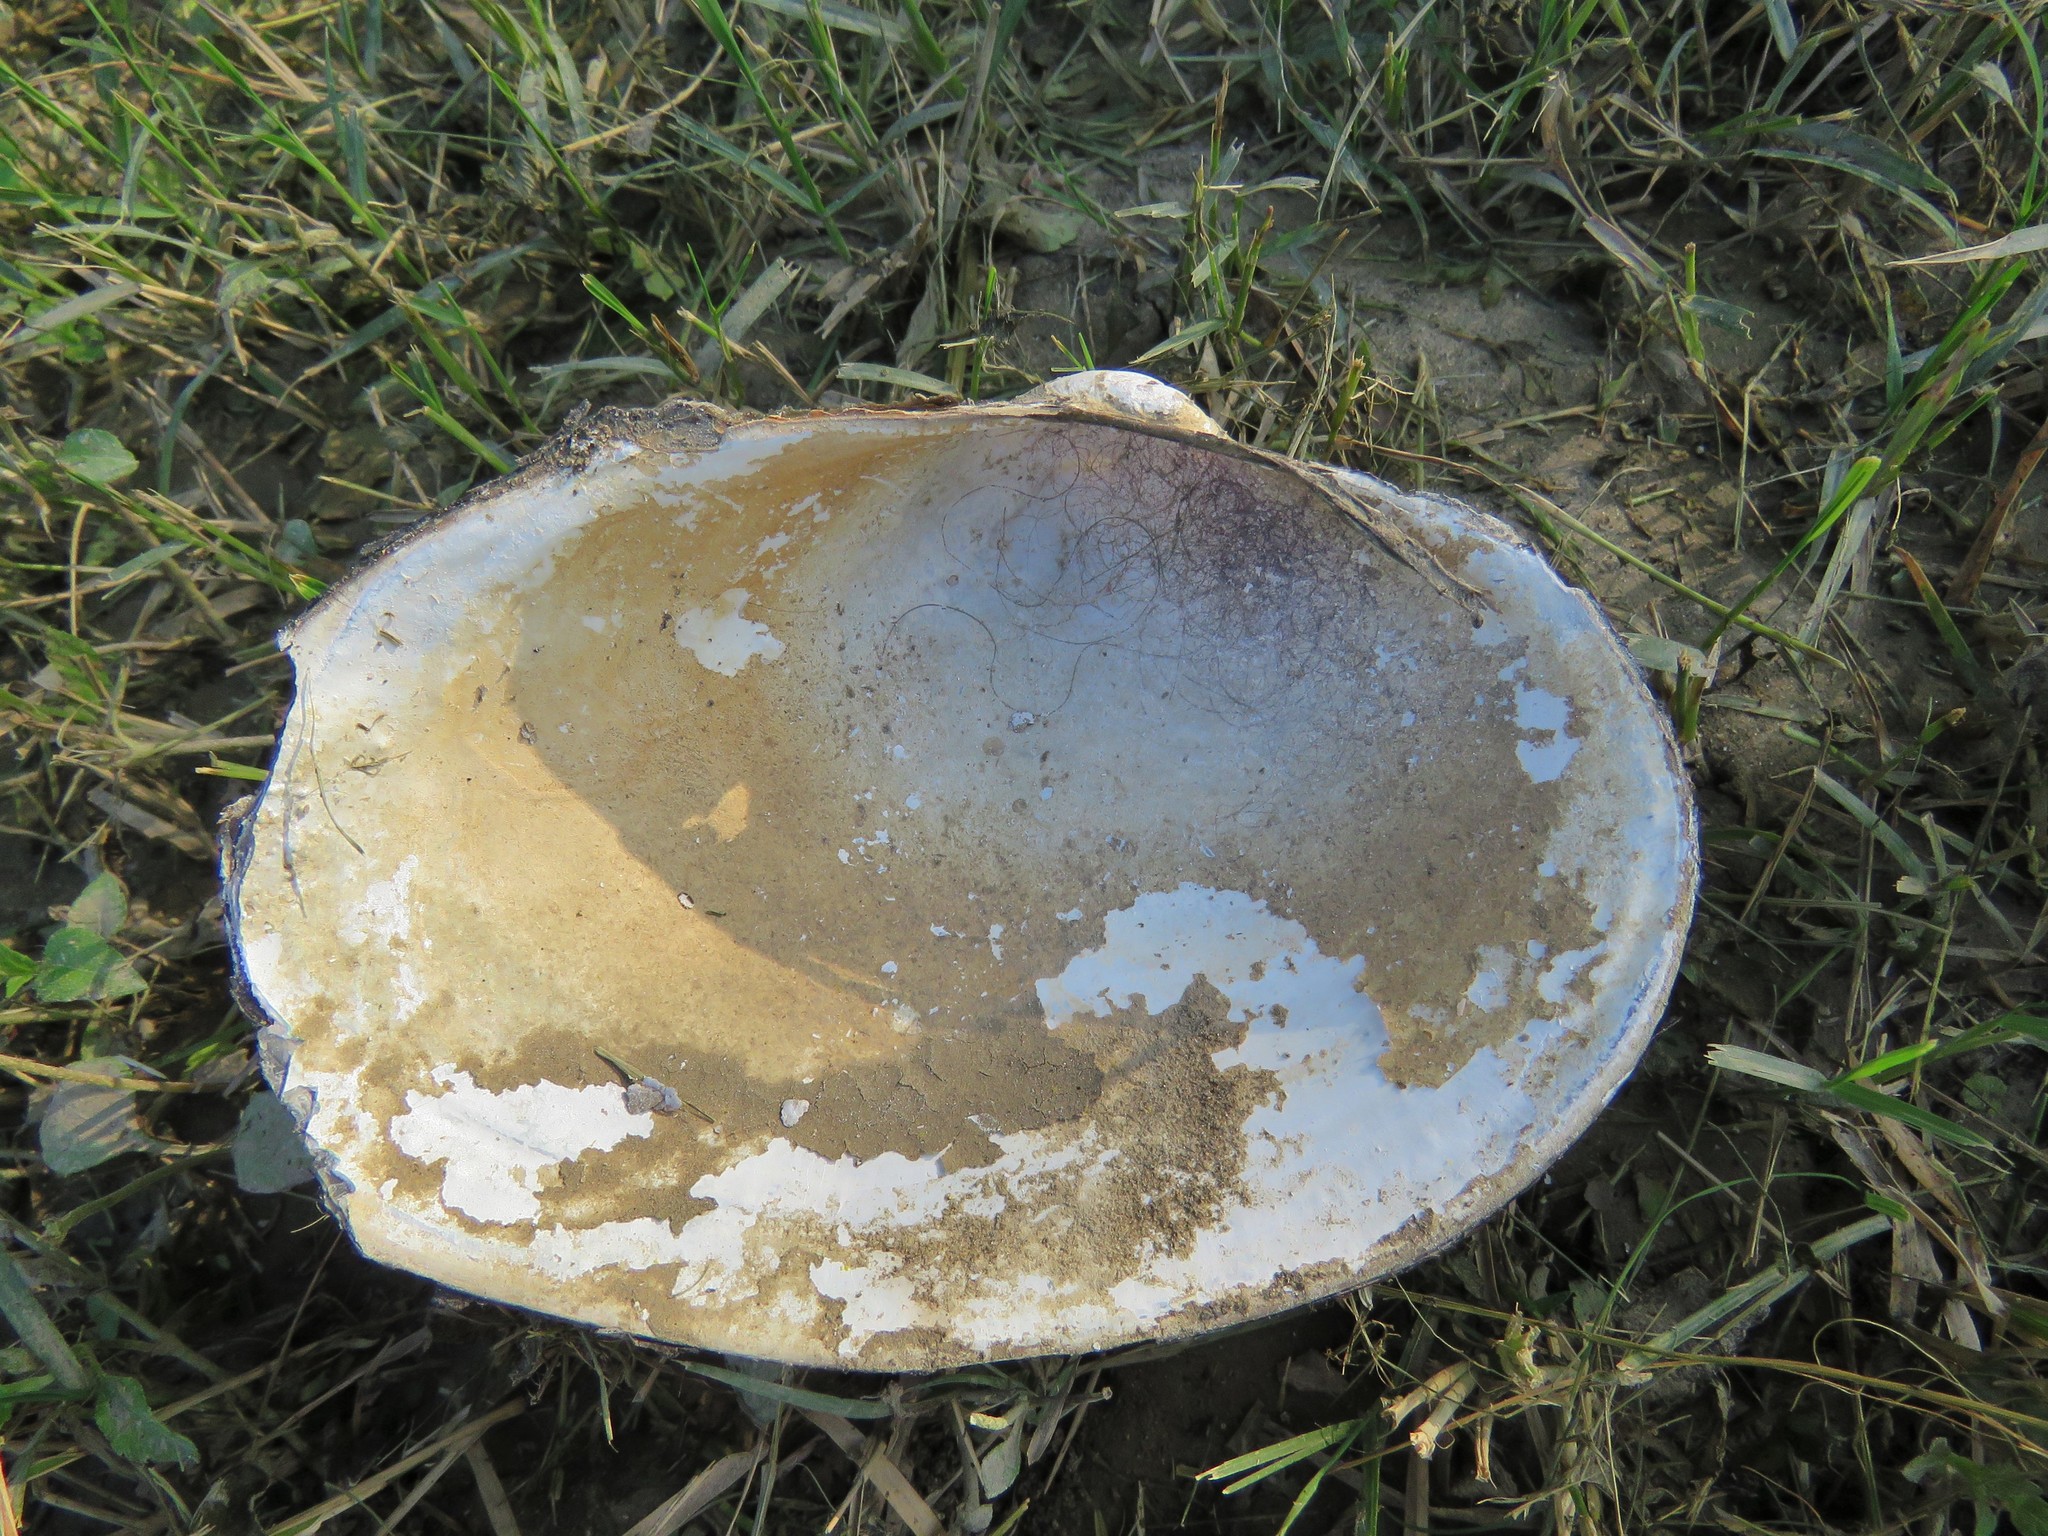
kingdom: Animalia
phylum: Mollusca
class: Bivalvia
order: Unionida
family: Unionidae
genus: Pyganodon
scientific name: Pyganodon grandis
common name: Giant floater
